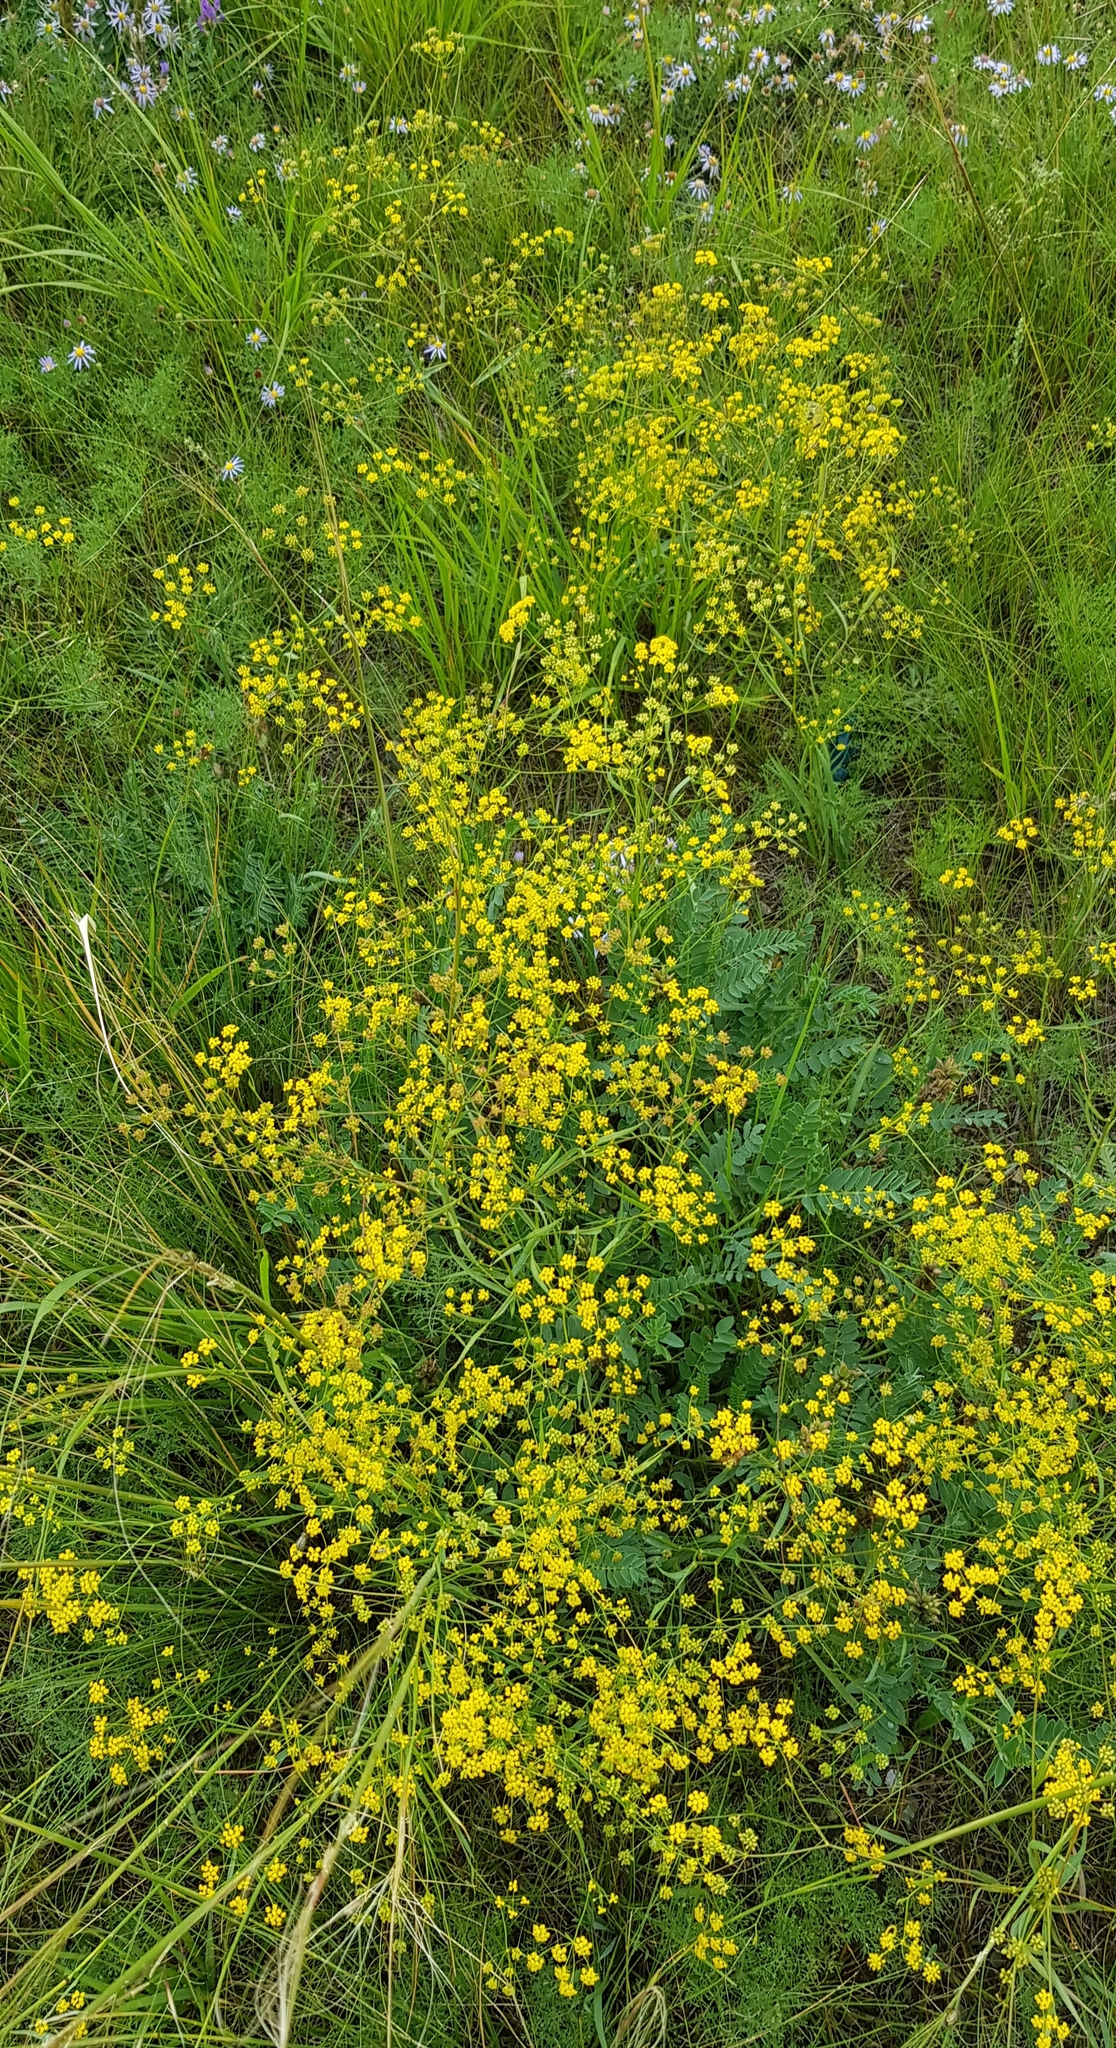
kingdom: Plantae
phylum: Tracheophyta
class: Magnoliopsida
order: Apiales
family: Apiaceae
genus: Bupleurum
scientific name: Bupleurum scorzonerifolium
